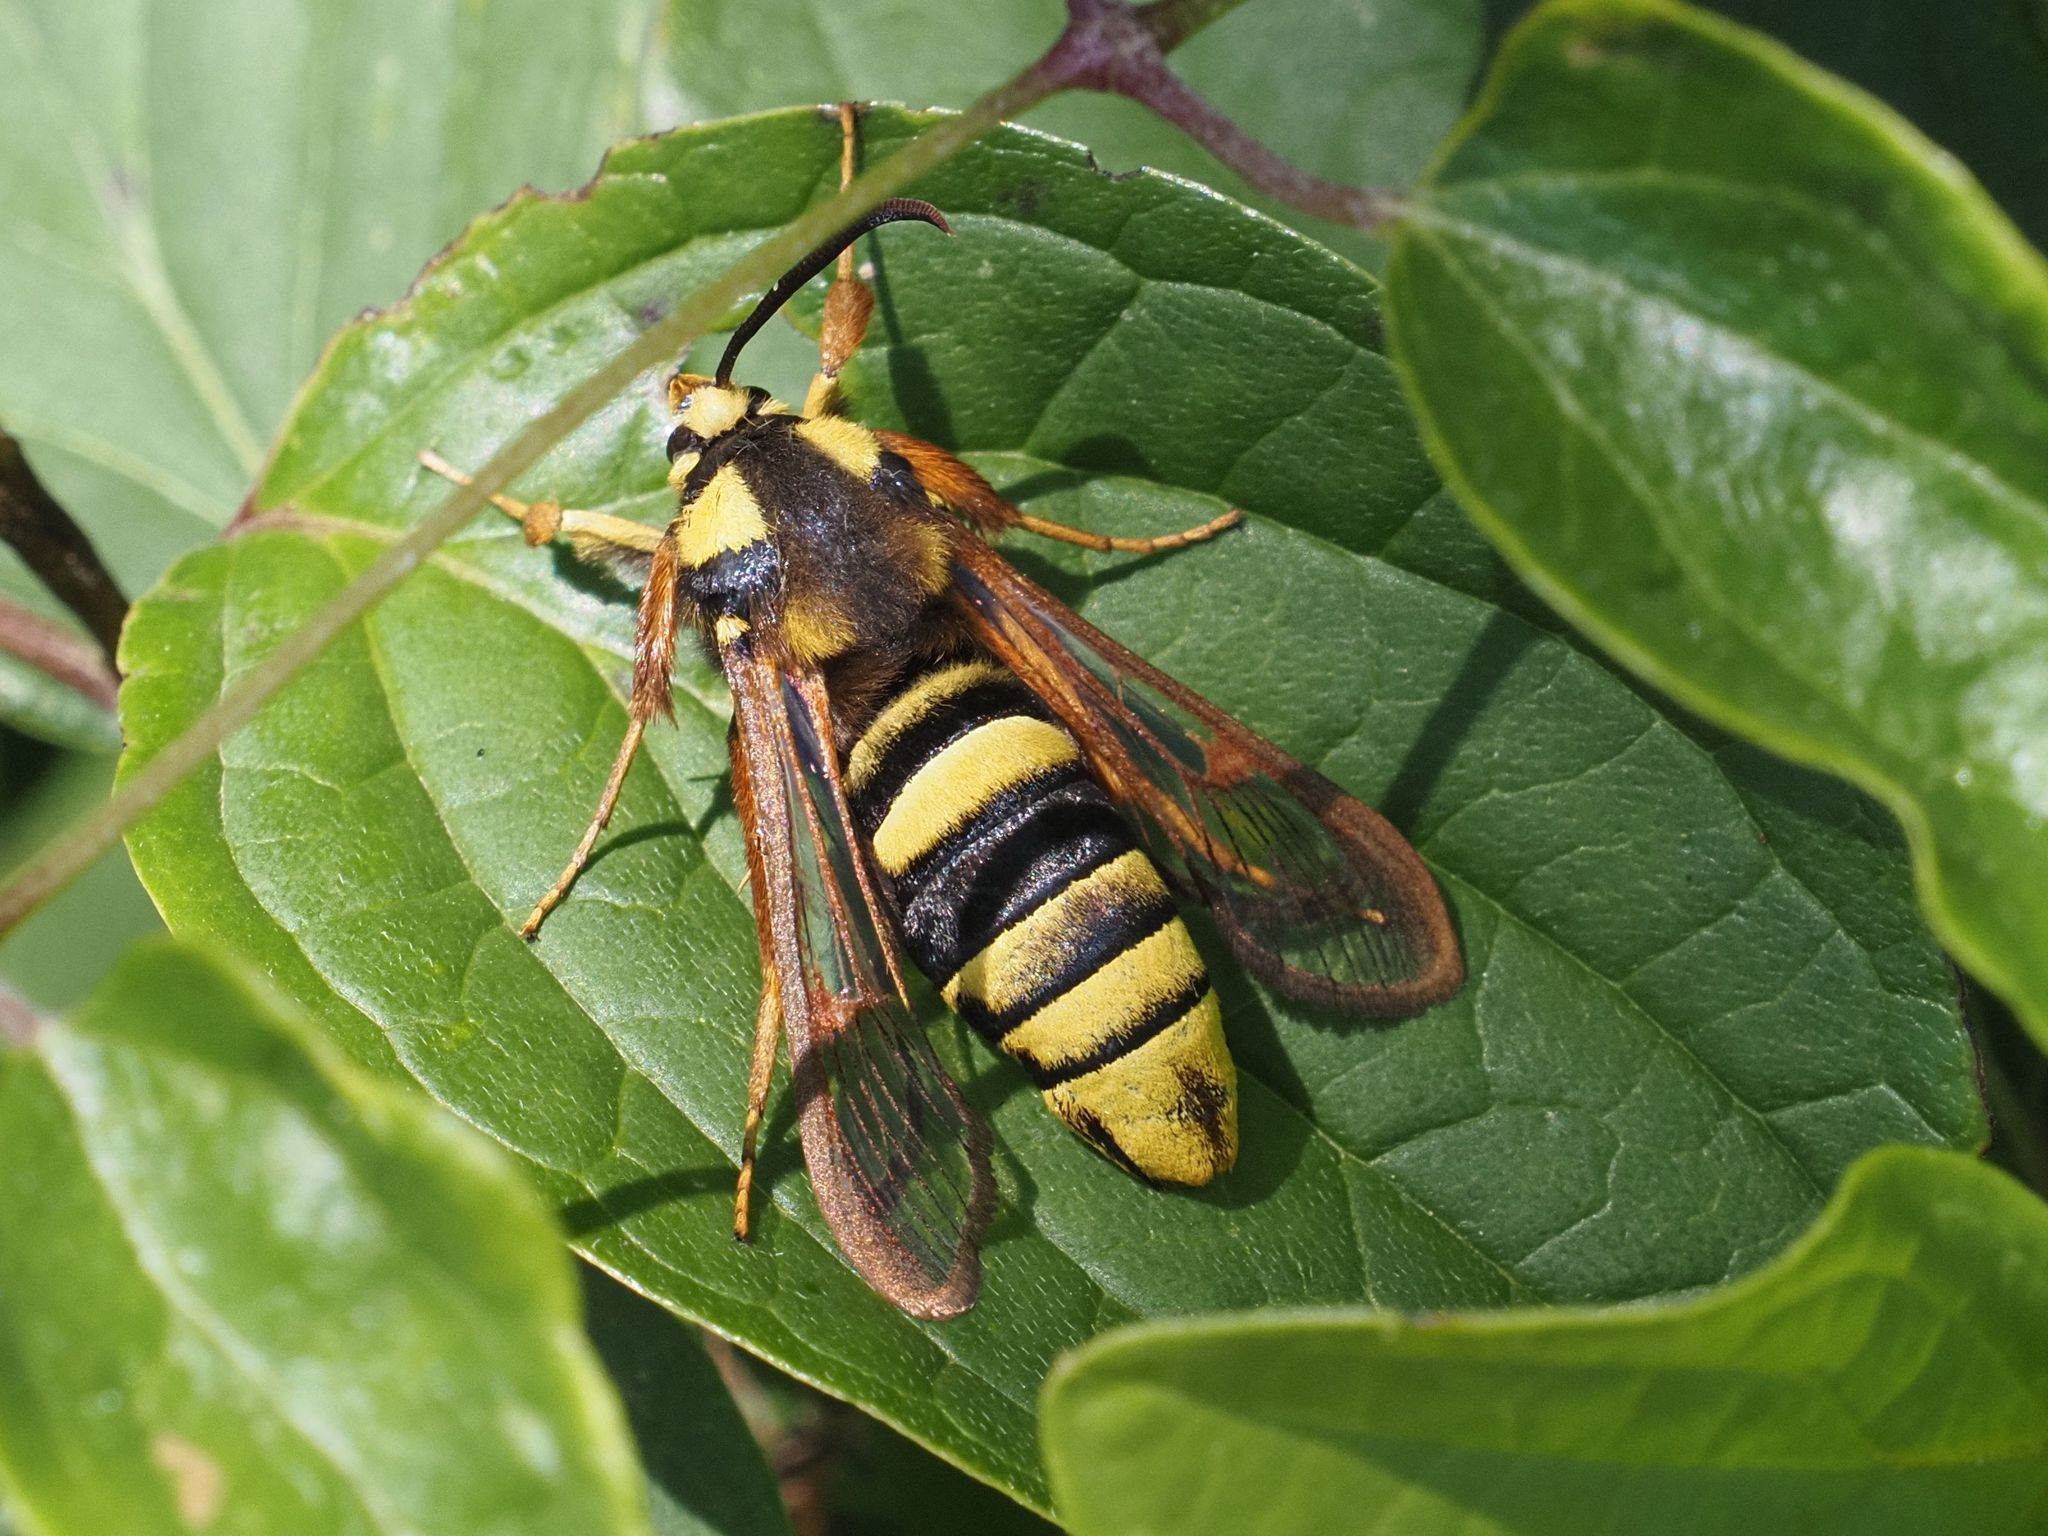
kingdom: Animalia
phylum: Arthropoda
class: Insecta
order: Lepidoptera
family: Sesiidae
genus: Sesia
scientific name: Sesia apiformis
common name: Hornet moth
